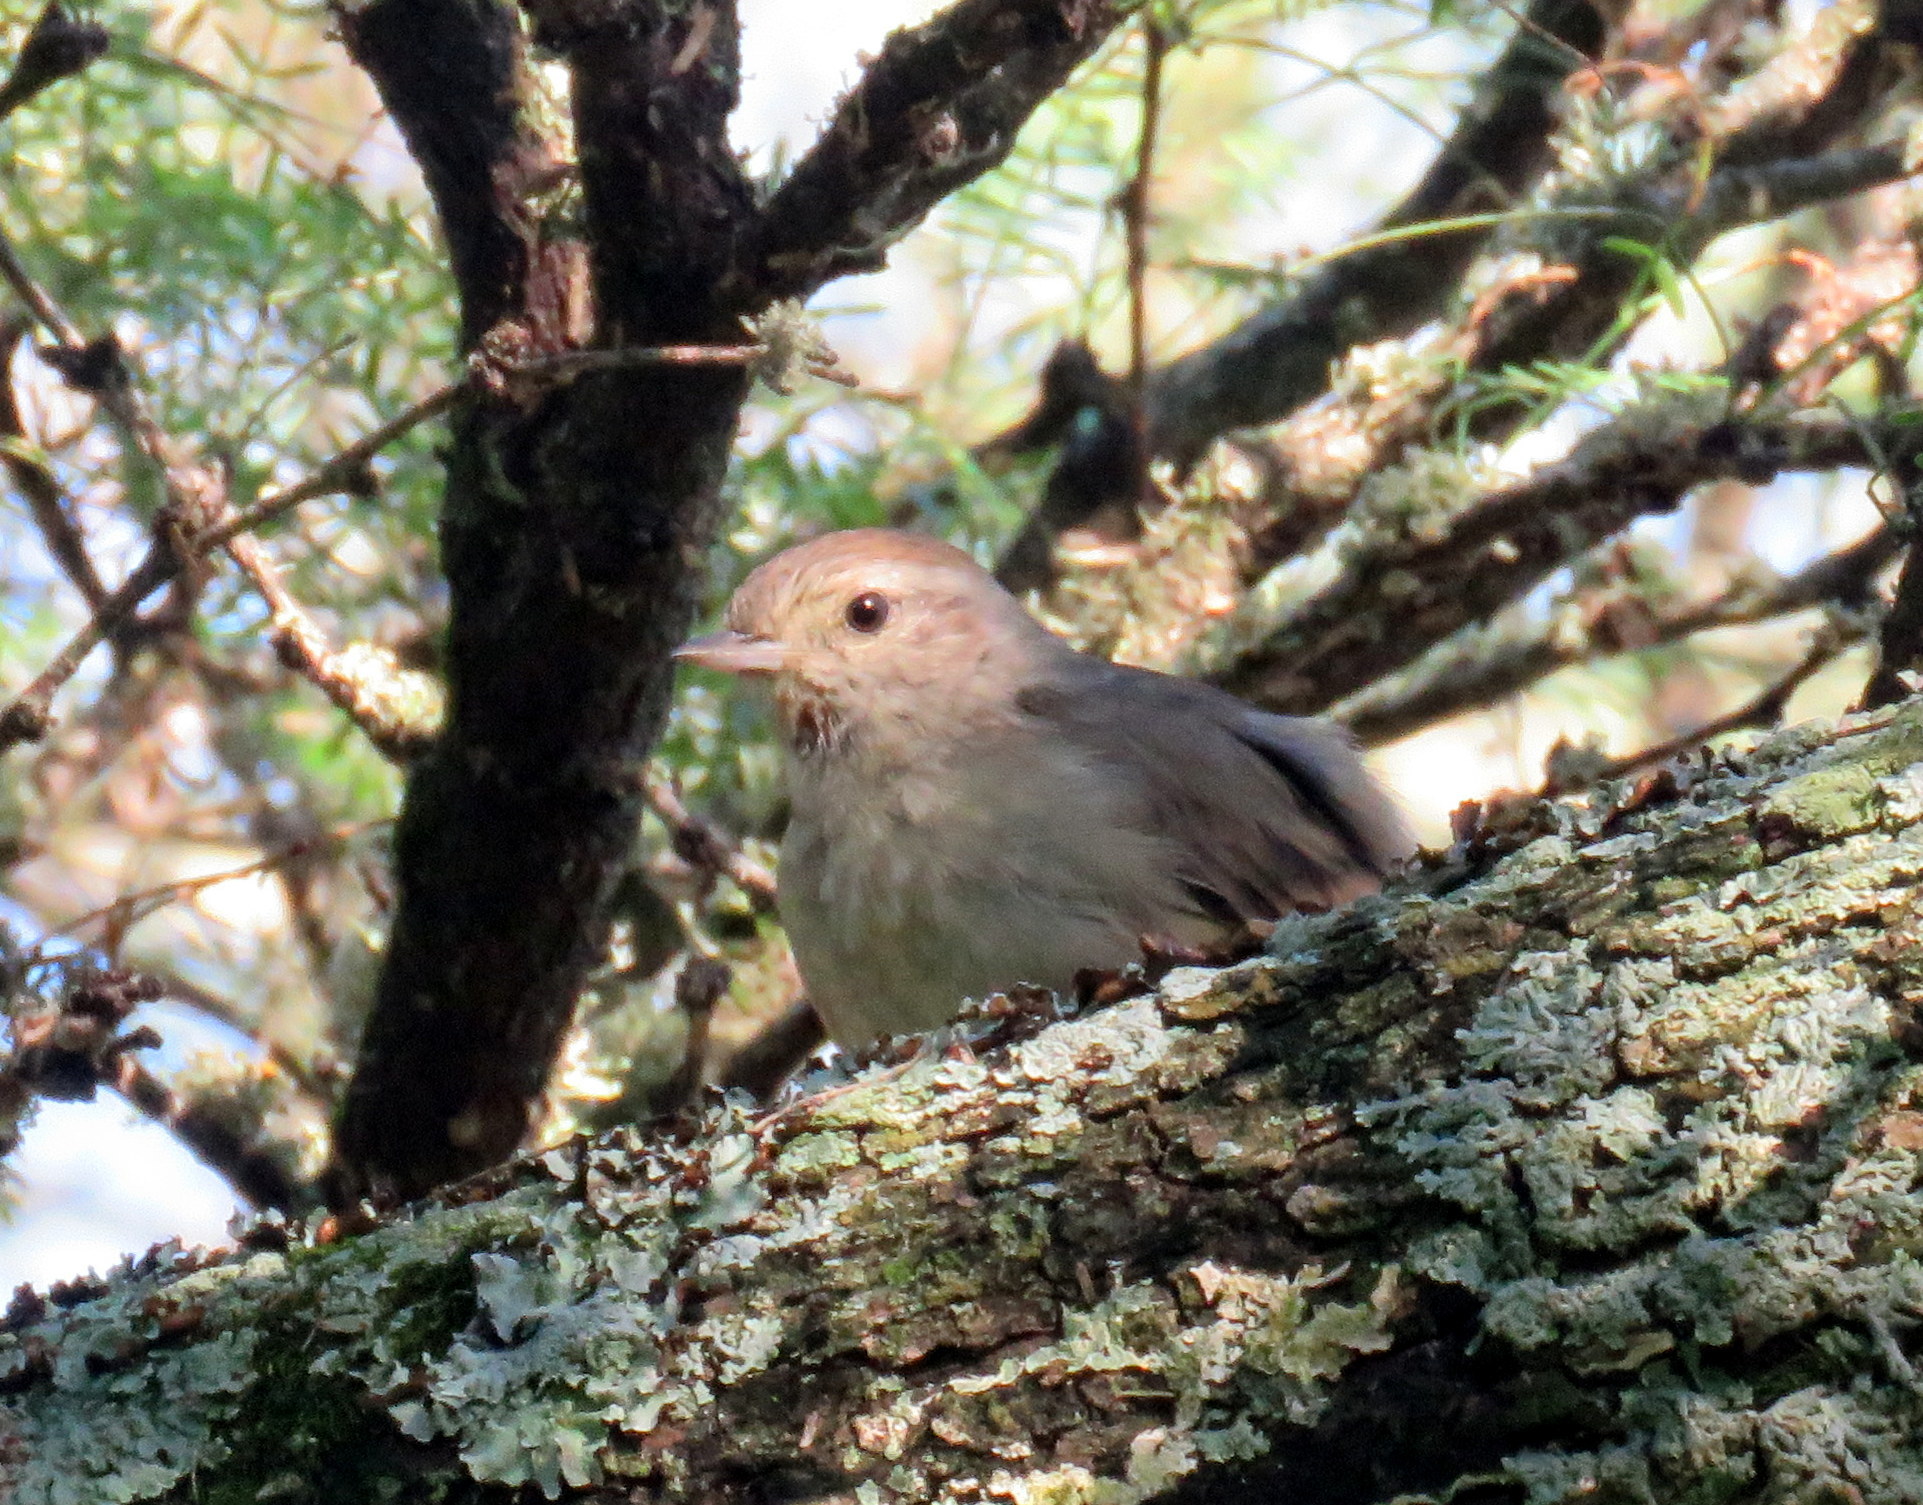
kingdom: Animalia
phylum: Chordata
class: Aves
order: Passeriformes
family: Furnariidae
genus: Asthenes
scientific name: Asthenes baeri
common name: Short-billed canastero
